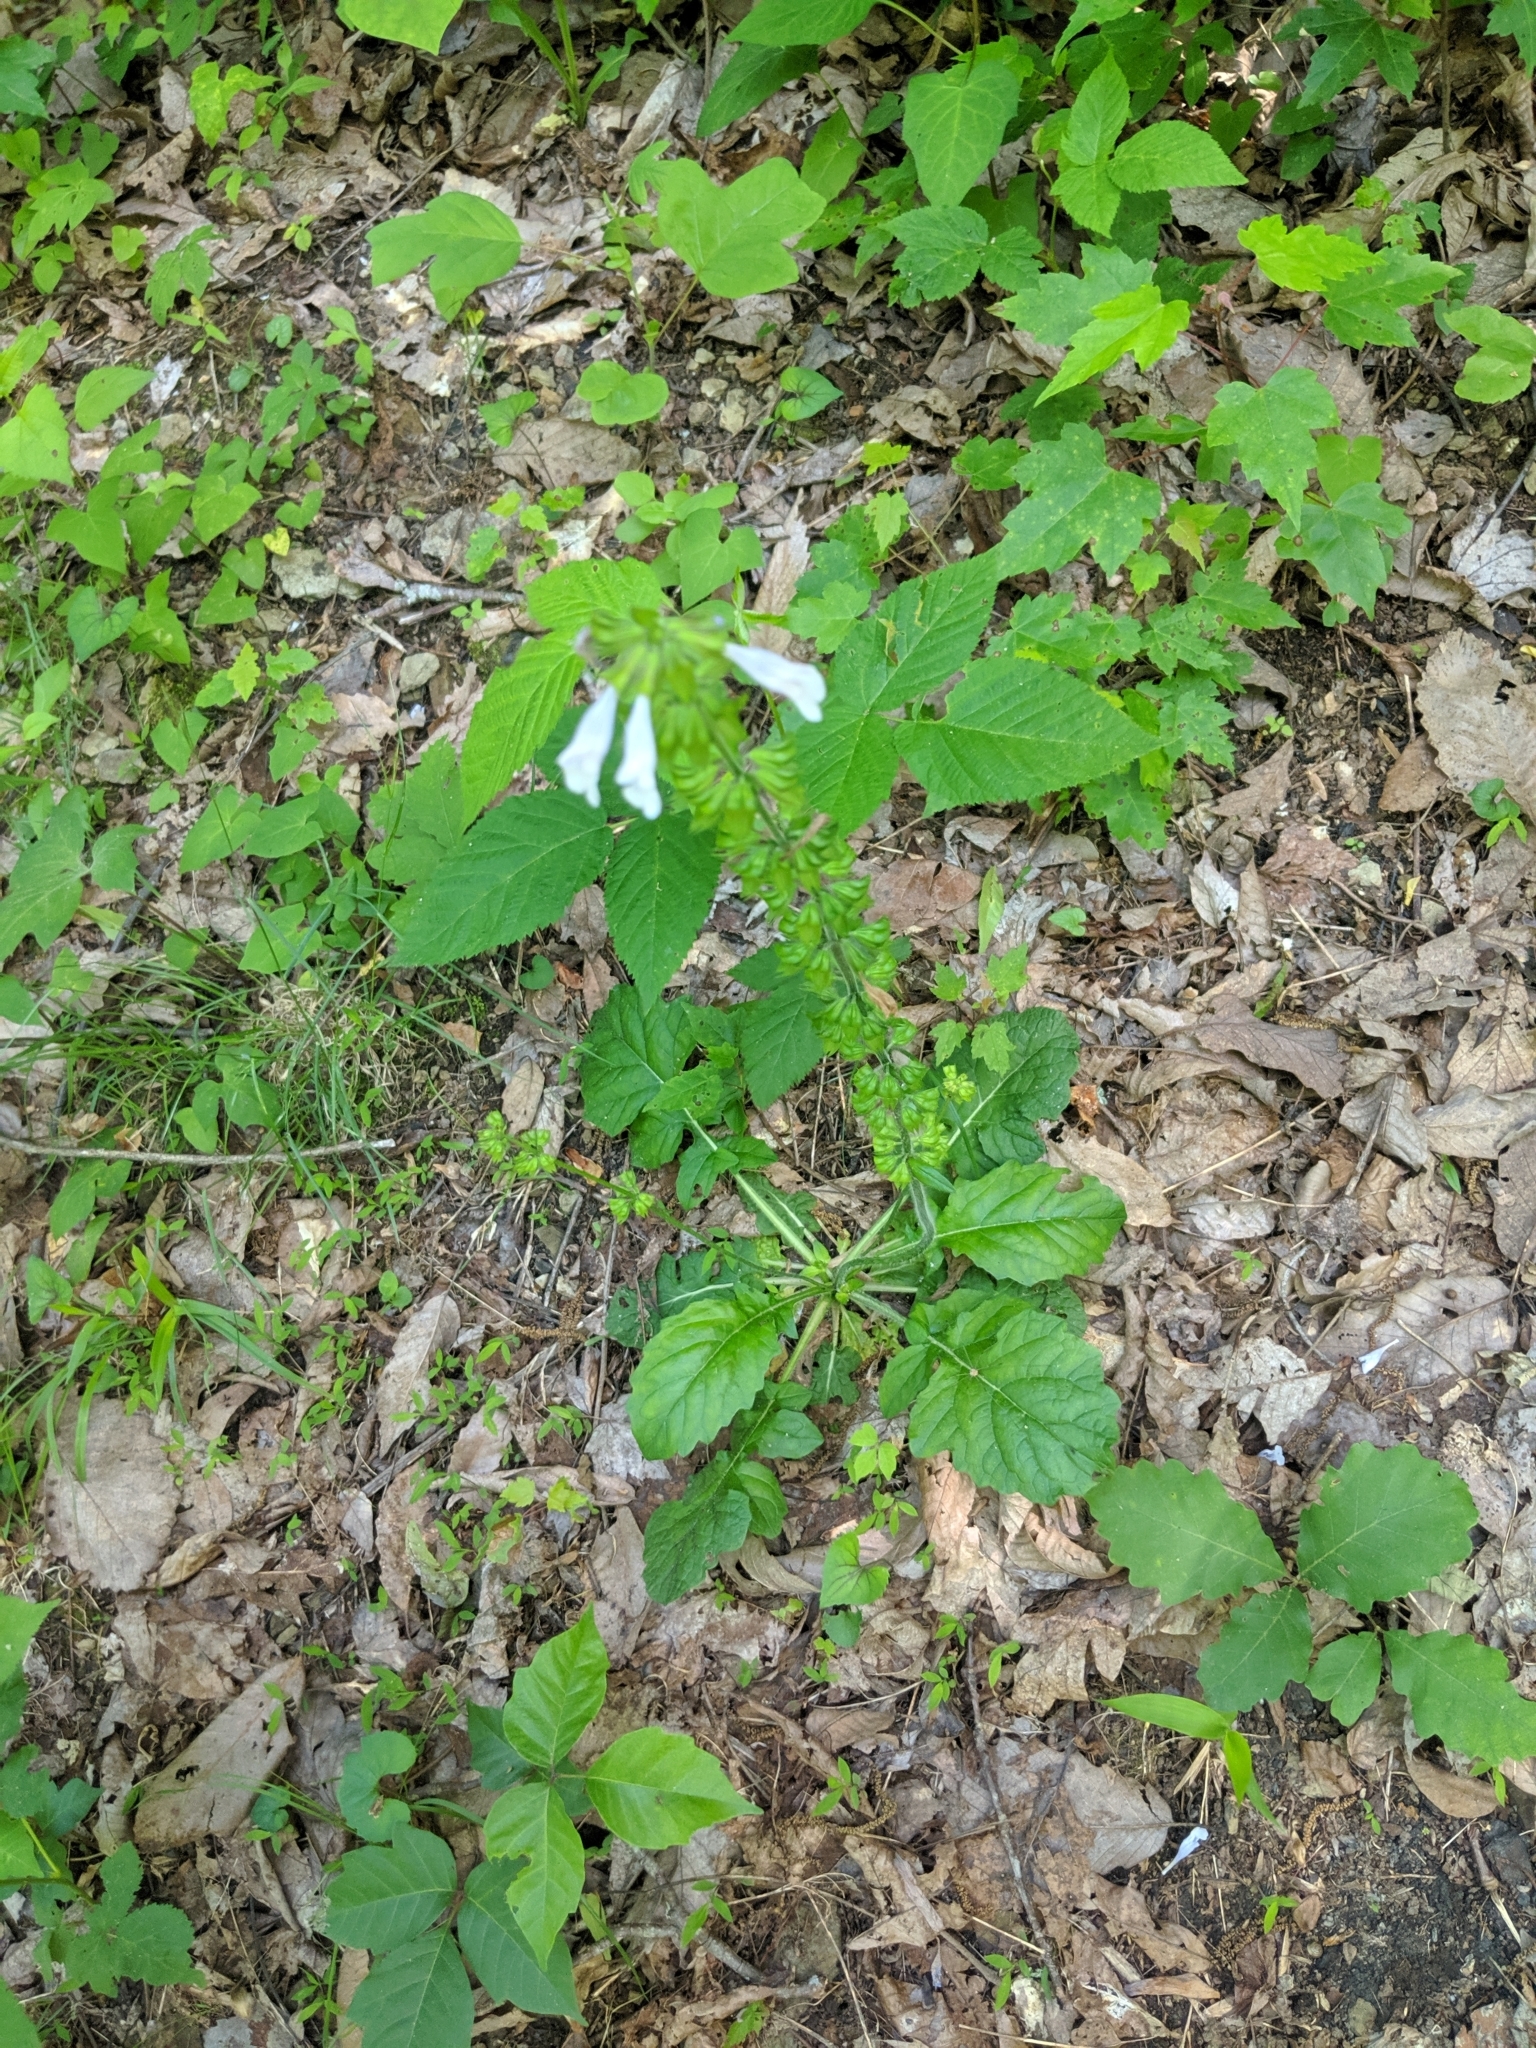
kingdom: Plantae
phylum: Tracheophyta
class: Magnoliopsida
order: Lamiales
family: Lamiaceae
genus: Salvia
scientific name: Salvia lyrata
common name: Cancerweed
